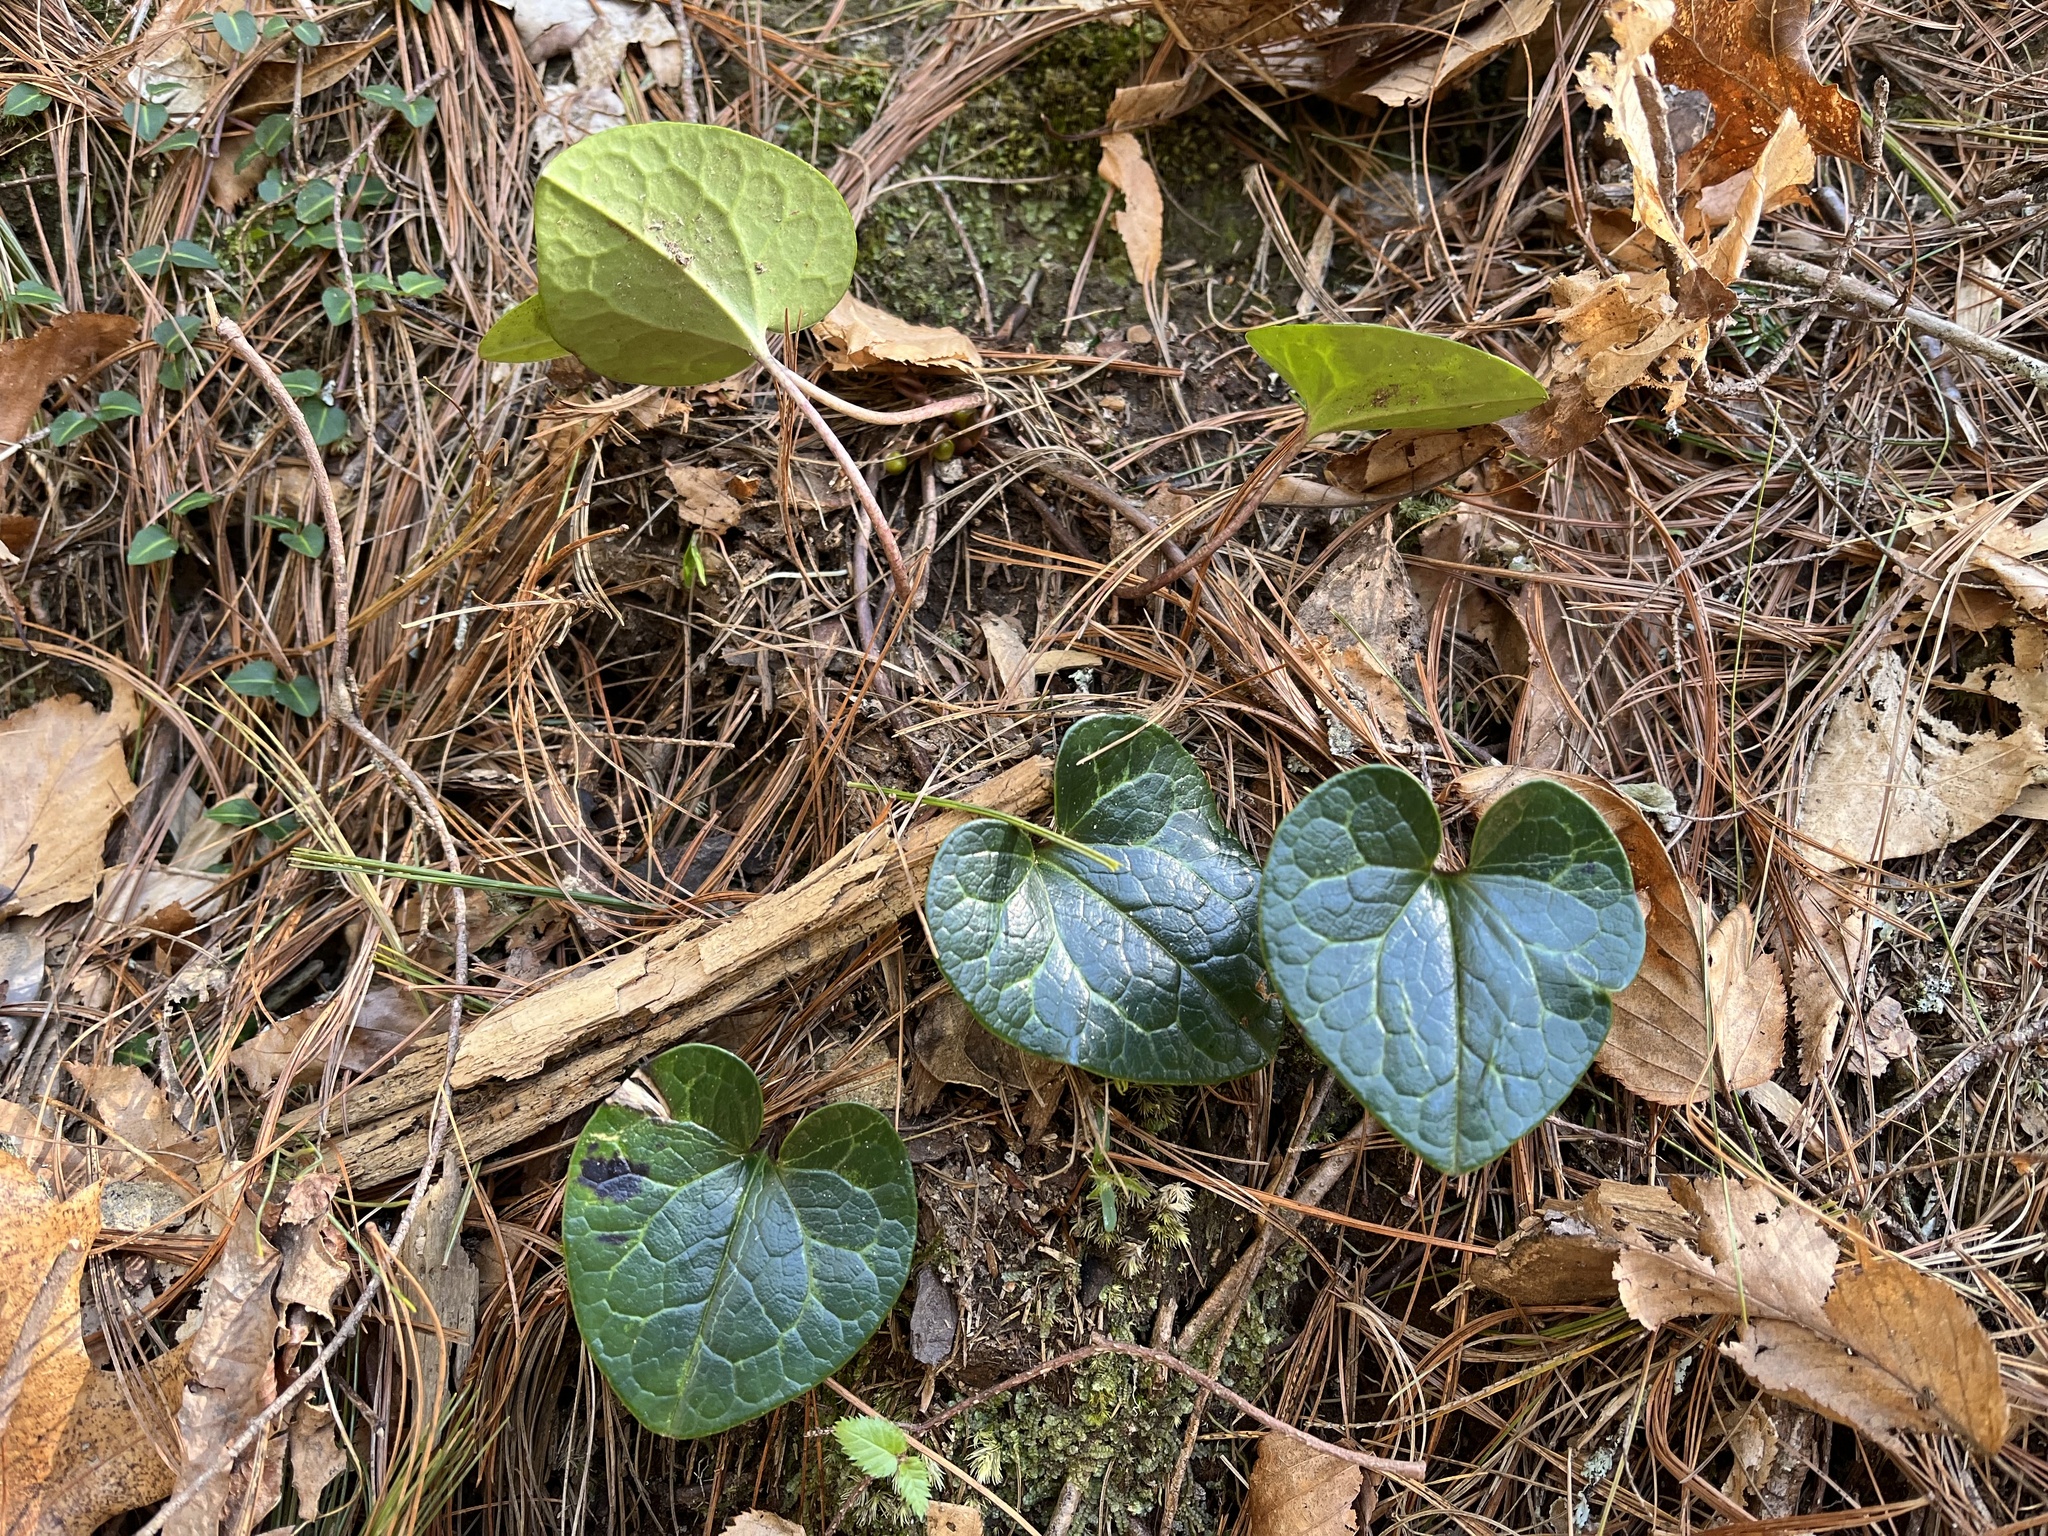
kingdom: Plantae
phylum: Tracheophyta
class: Magnoliopsida
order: Piperales
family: Aristolochiaceae
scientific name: Aristolochiaceae
